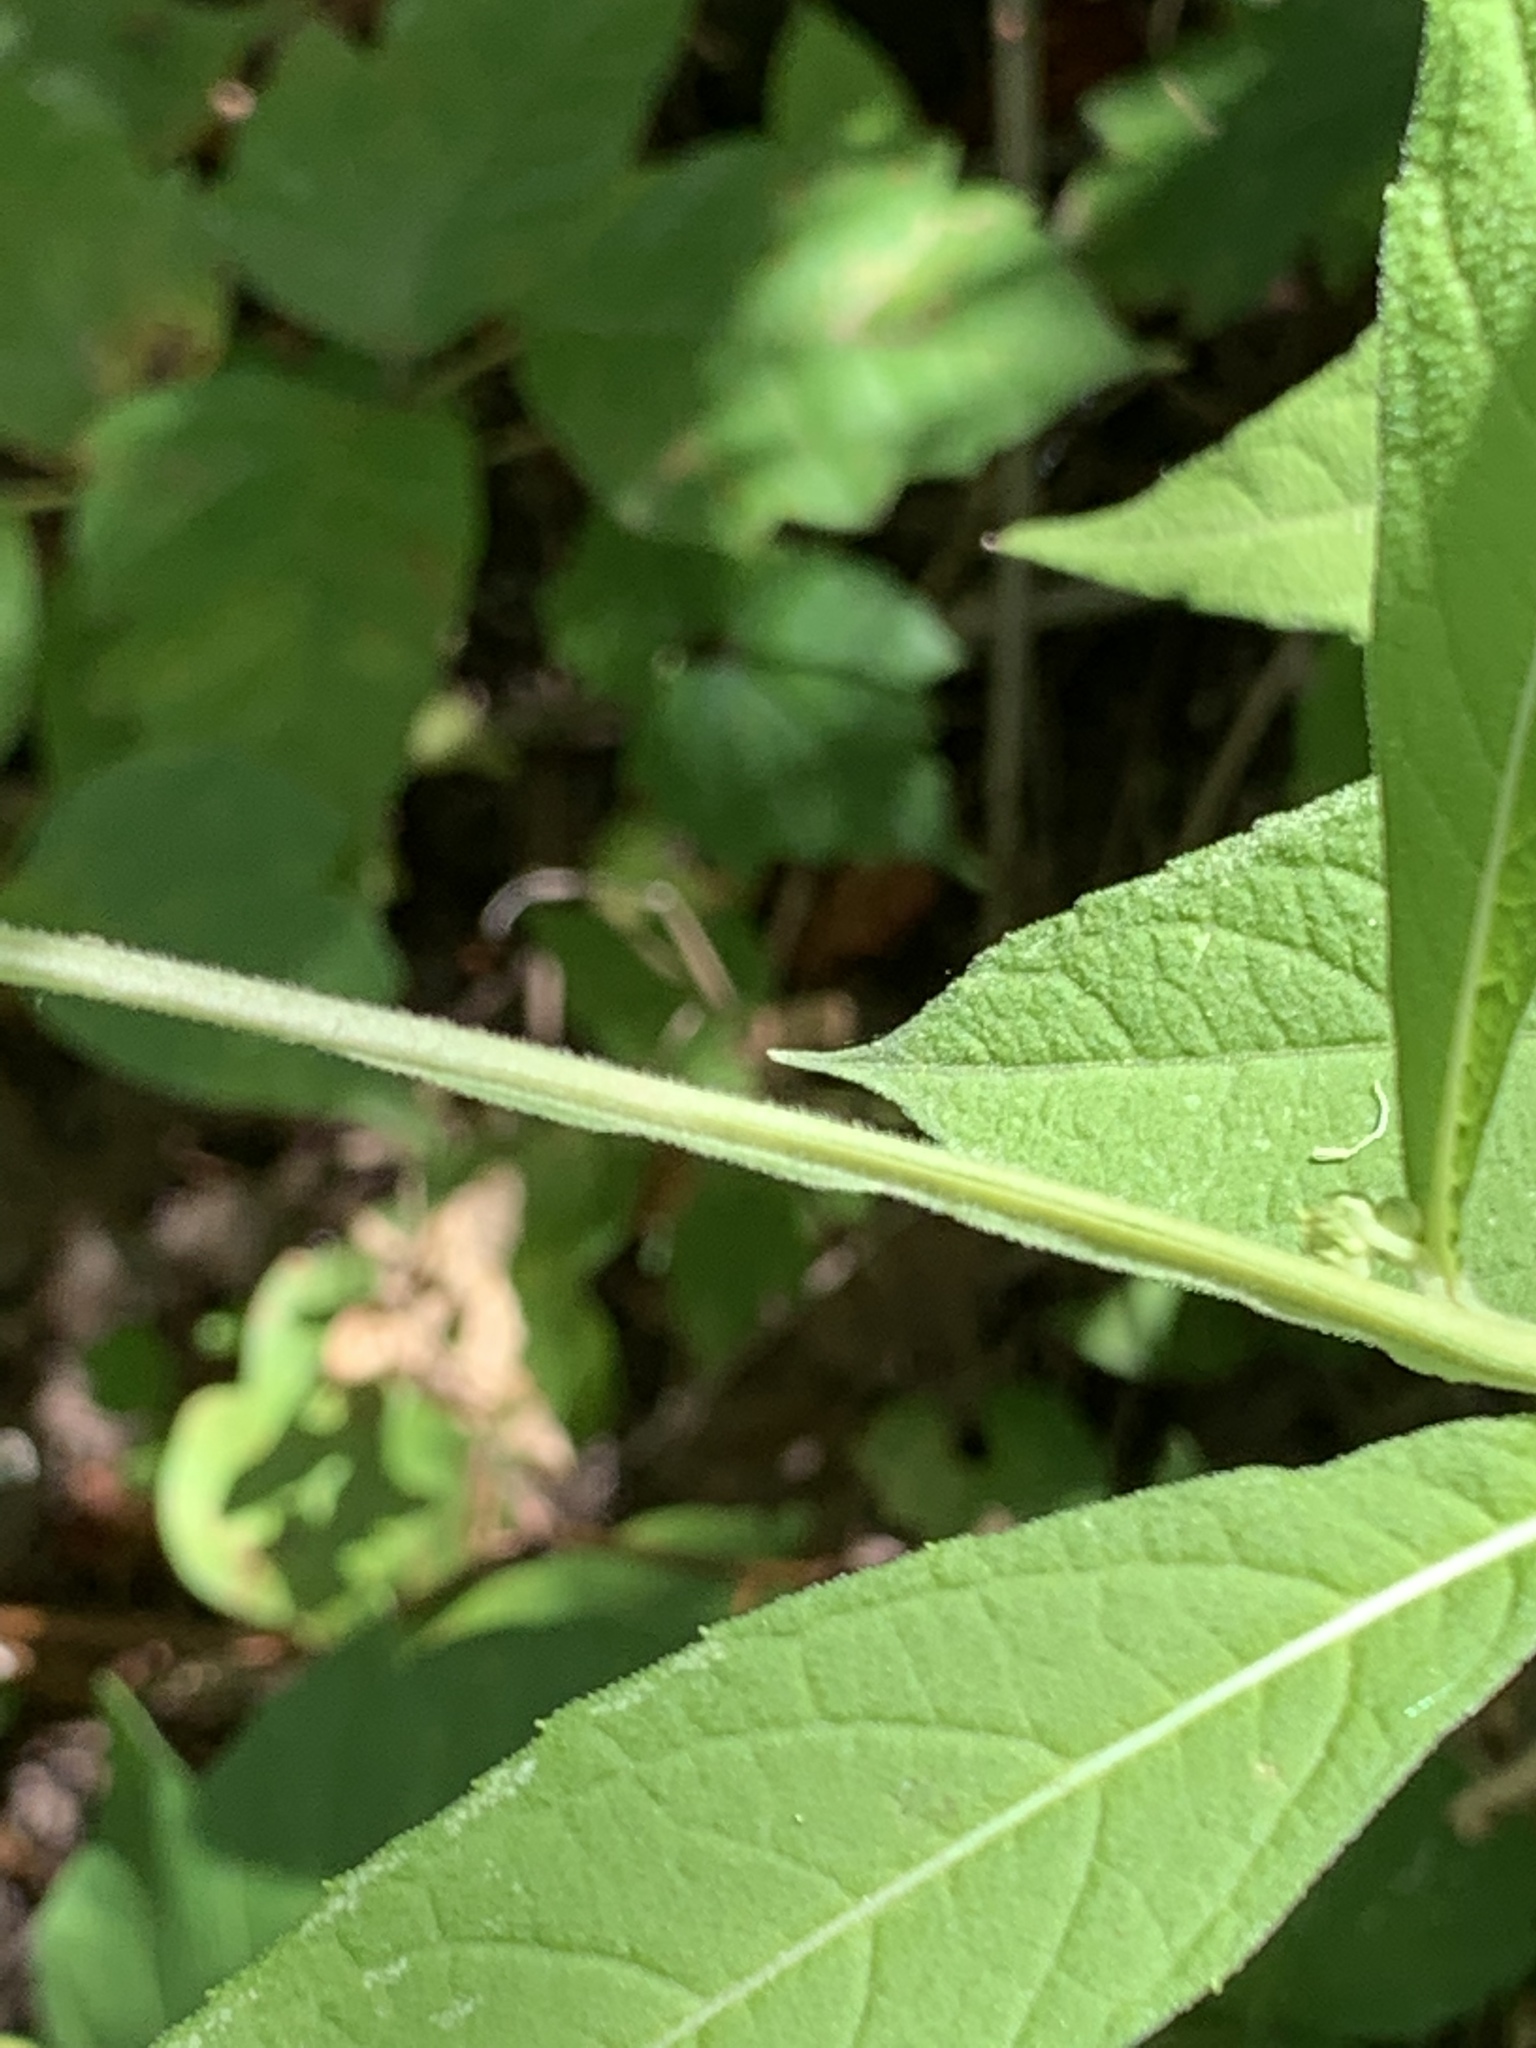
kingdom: Plantae
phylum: Tracheophyta
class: Magnoliopsida
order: Asterales
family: Asteraceae
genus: Verbesina
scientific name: Verbesina alternifolia
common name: Wingstem
